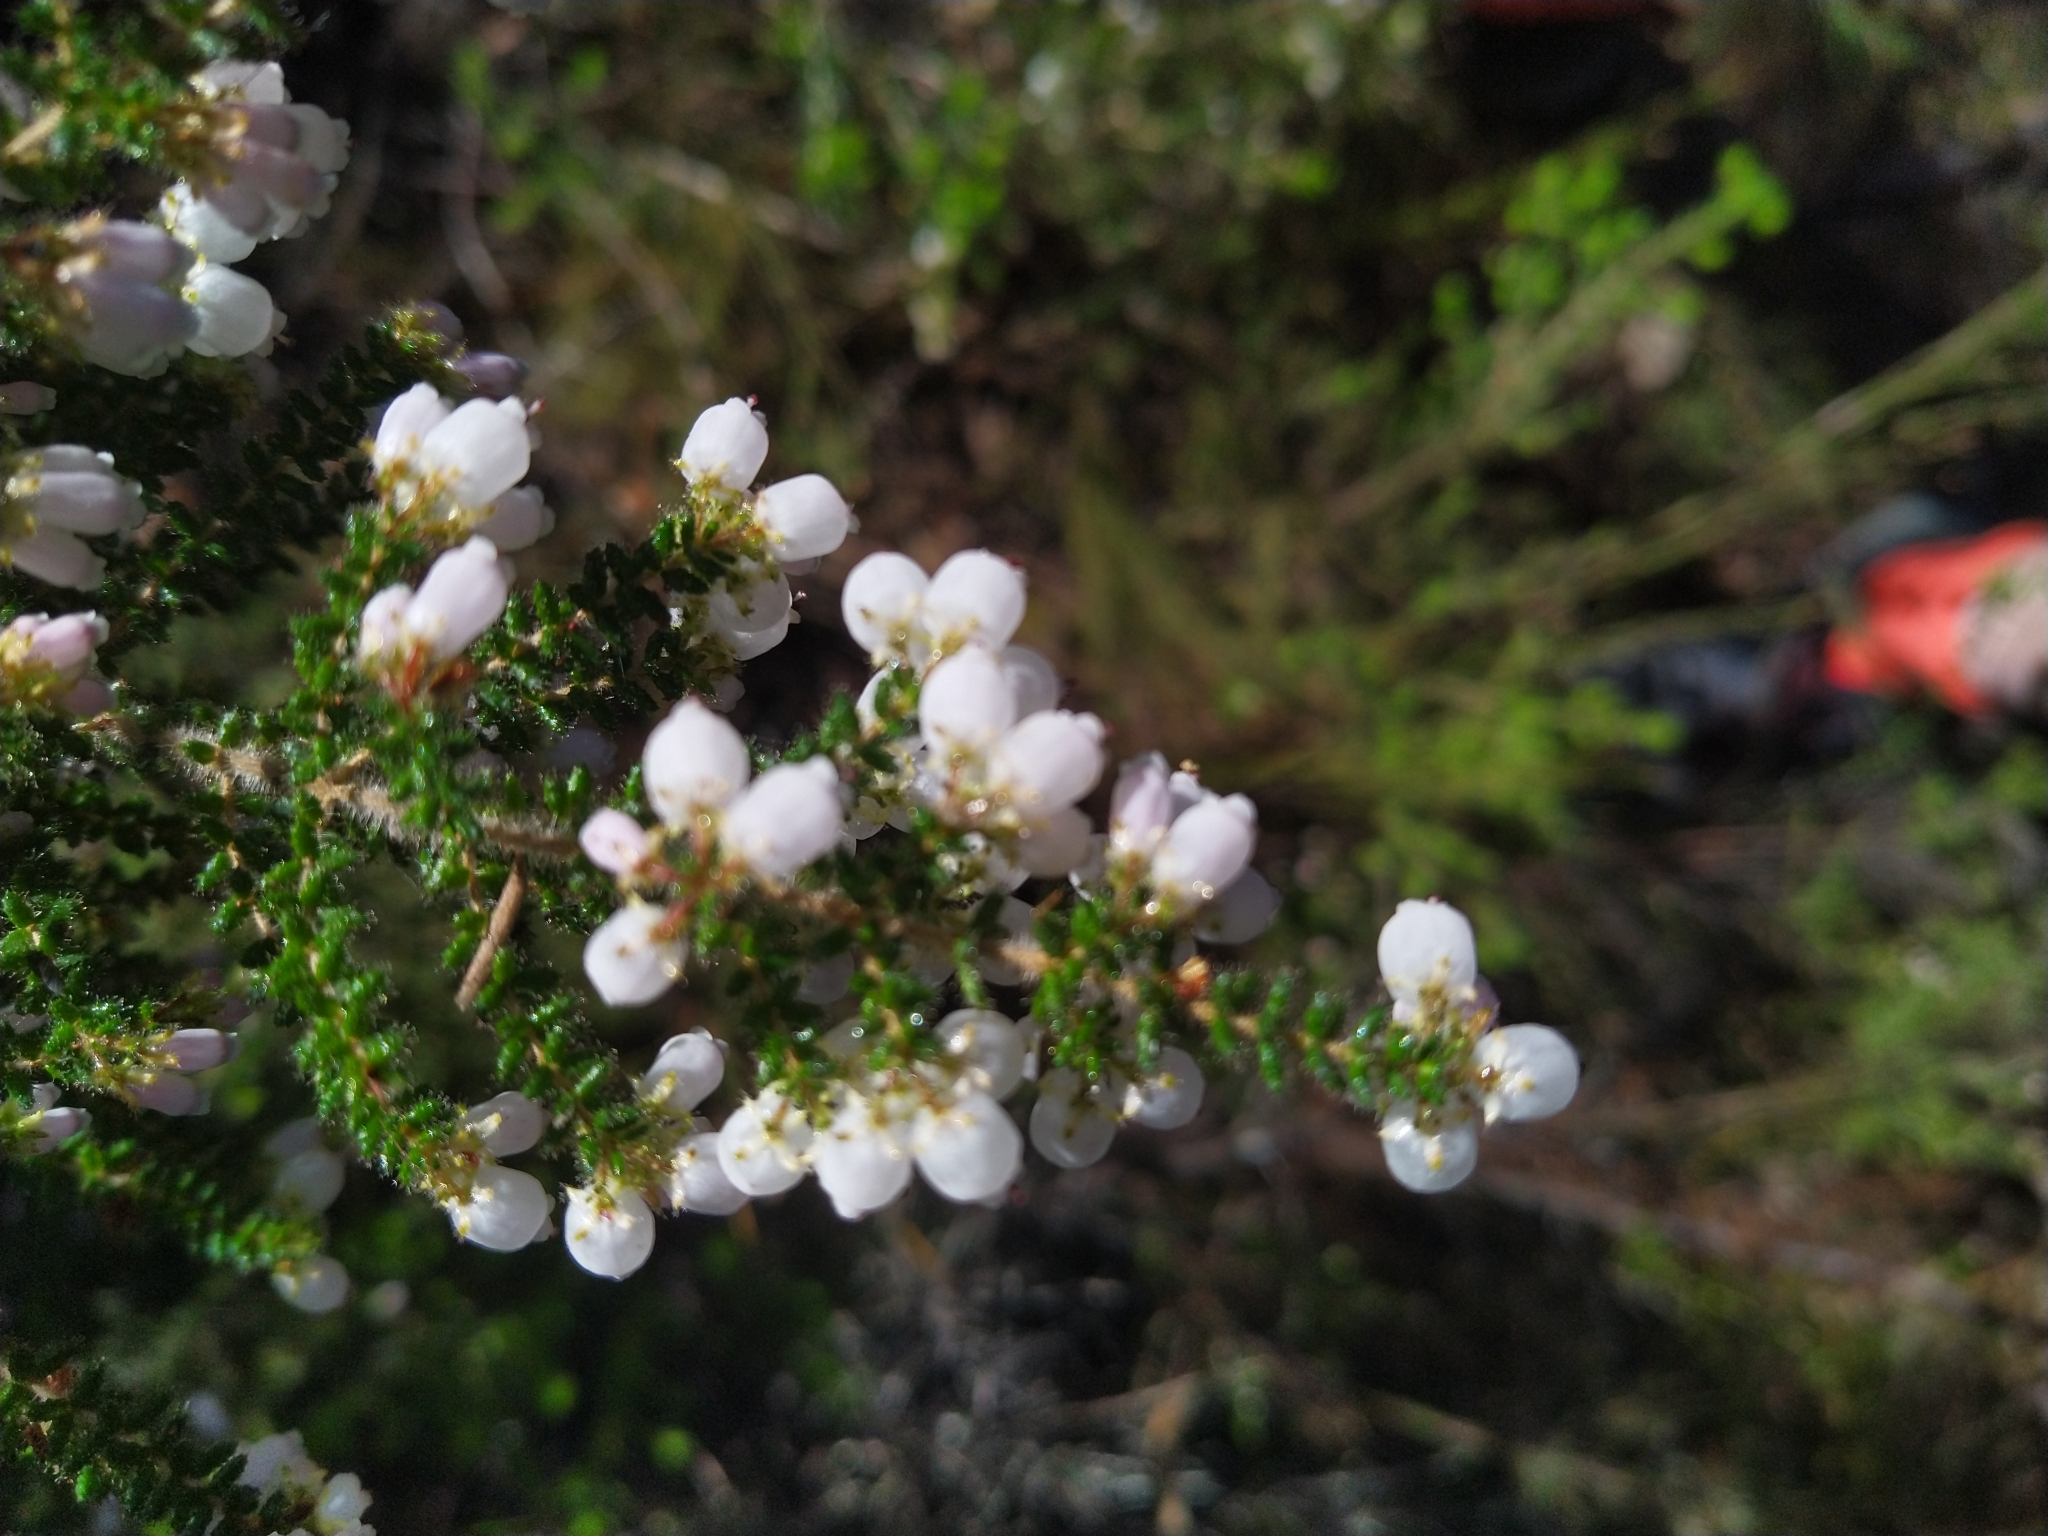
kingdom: Plantae
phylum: Tracheophyta
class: Magnoliopsida
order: Ericales
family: Ericaceae
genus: Erica
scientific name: Erica scabriuscula
